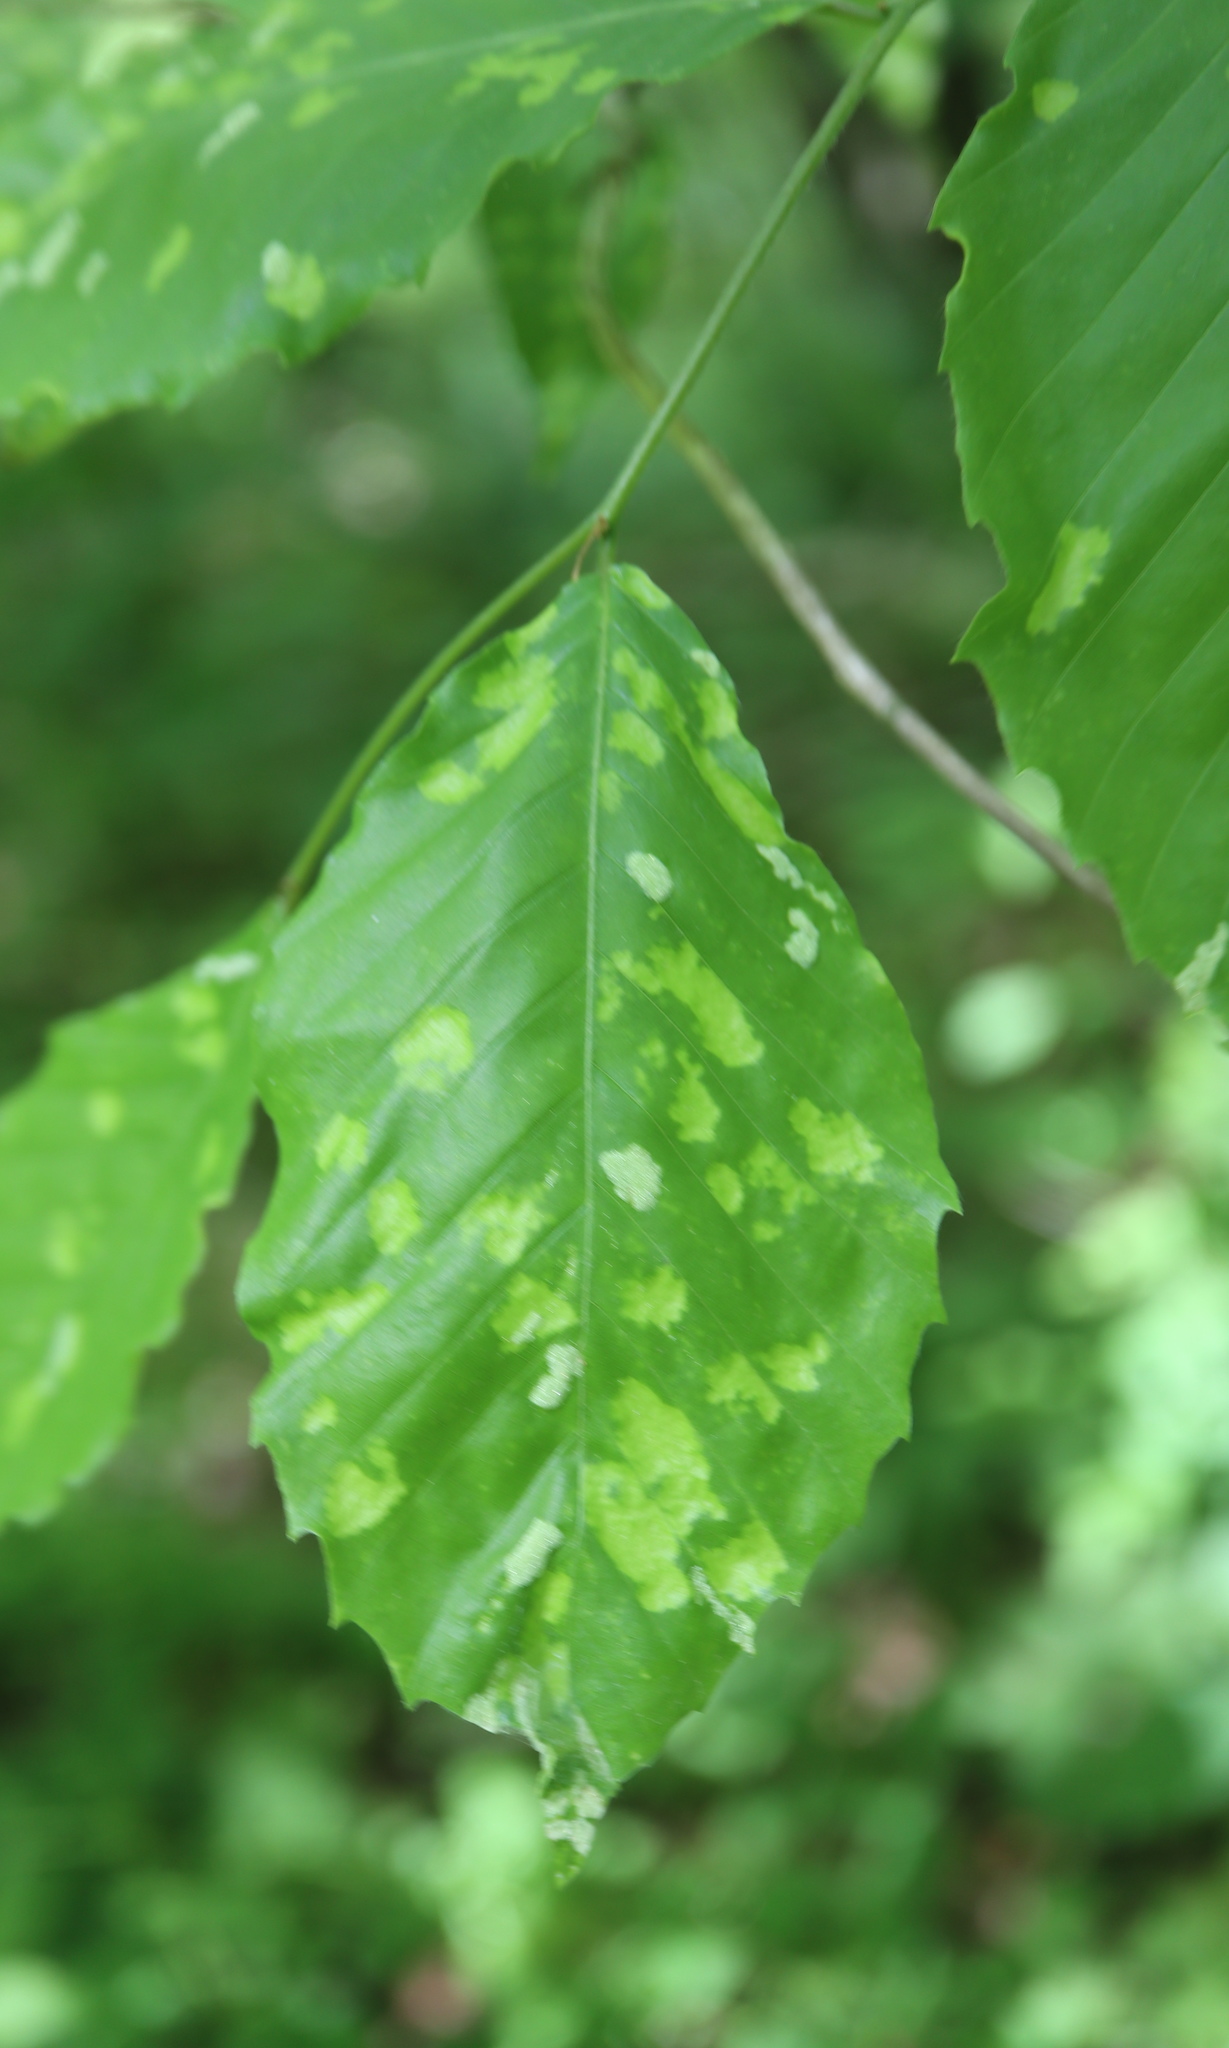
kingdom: Animalia
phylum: Arthropoda
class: Arachnida
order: Trombidiformes
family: Eriophyidae
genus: Acalitus
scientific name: Acalitus
